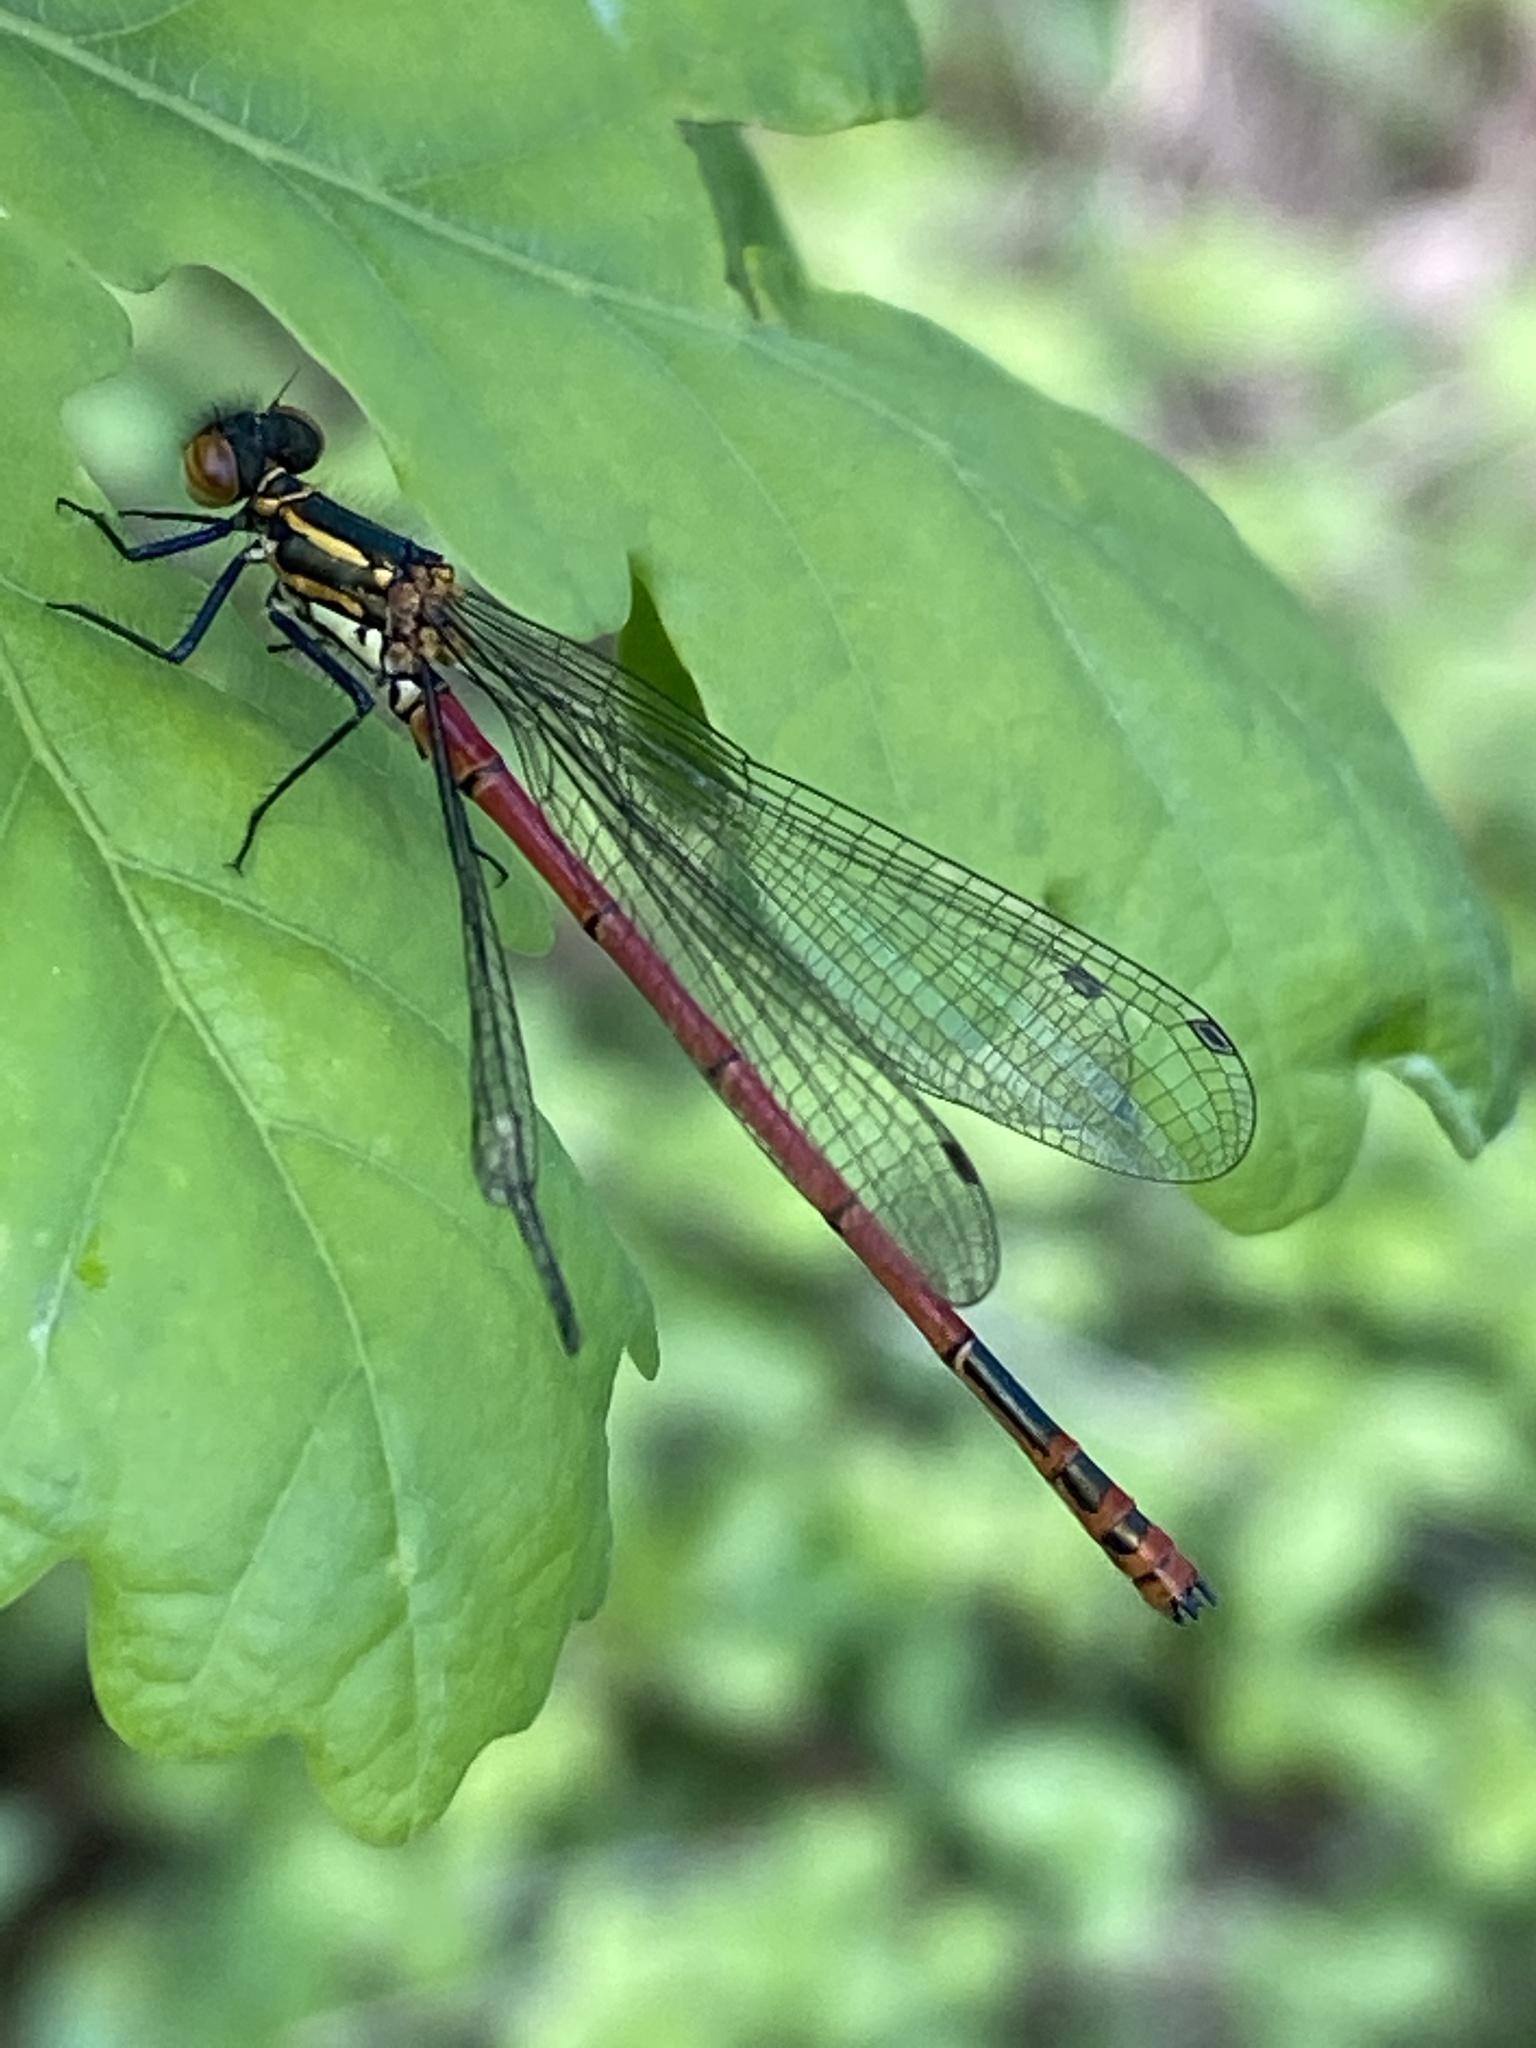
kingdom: Animalia
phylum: Arthropoda
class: Insecta
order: Odonata
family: Coenagrionidae
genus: Pyrrhosoma
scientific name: Pyrrhosoma nymphula
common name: Large red damsel
